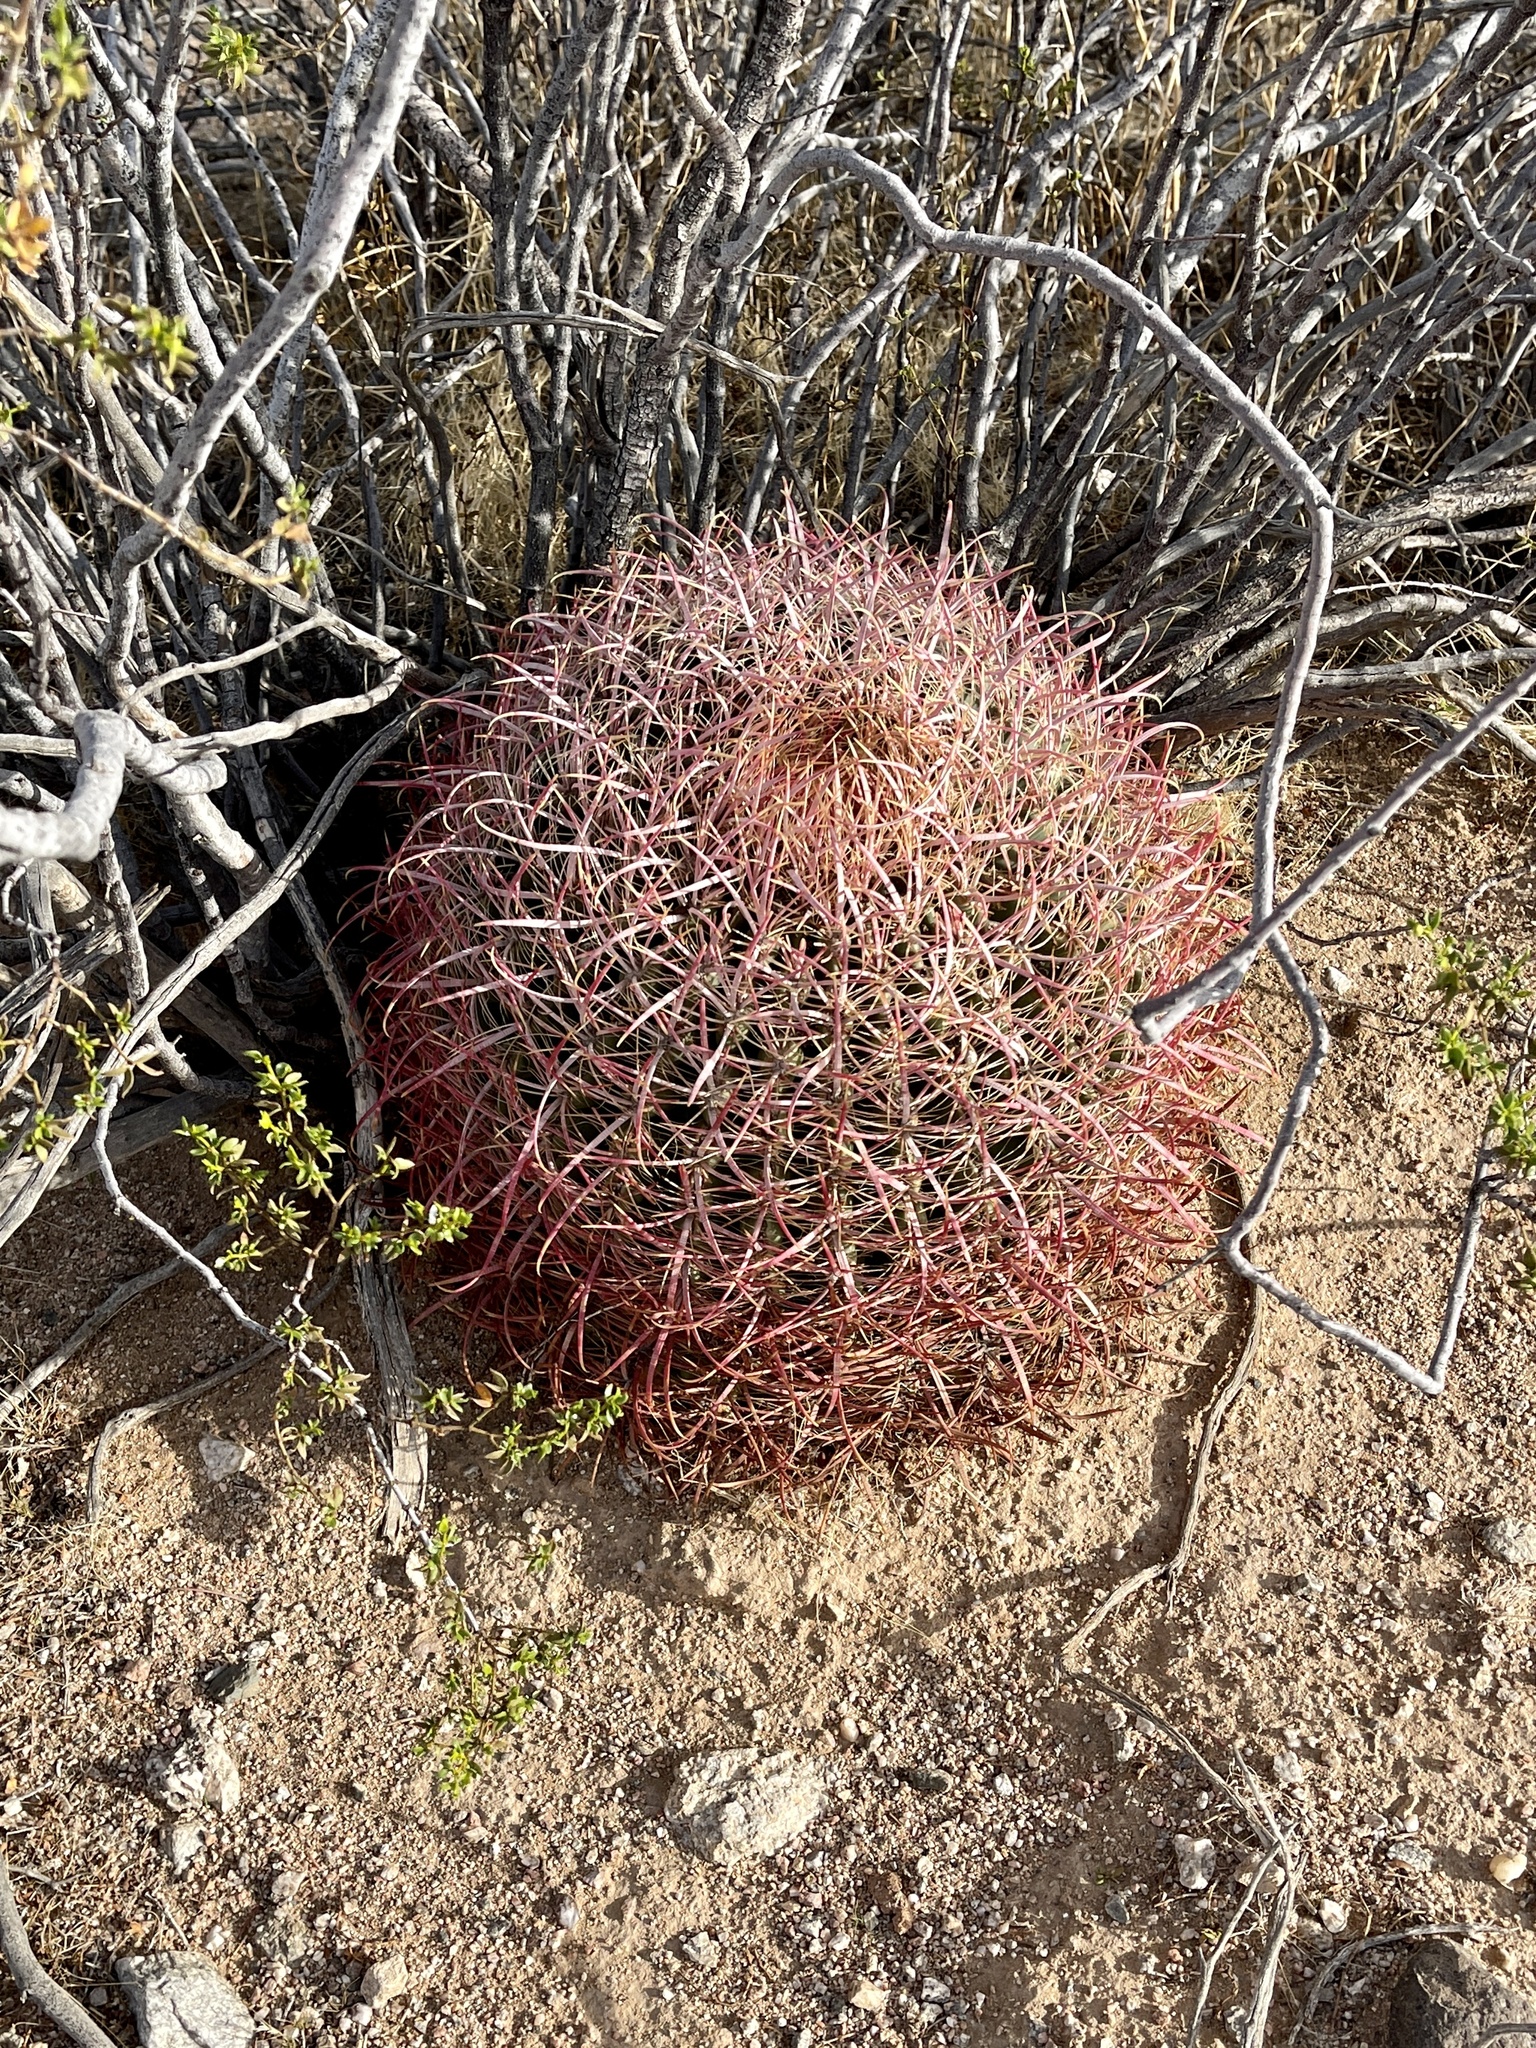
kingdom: Plantae
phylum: Tracheophyta
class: Magnoliopsida
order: Caryophyllales
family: Cactaceae
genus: Ferocactus
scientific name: Ferocactus cylindraceus
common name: California barrel cactus
